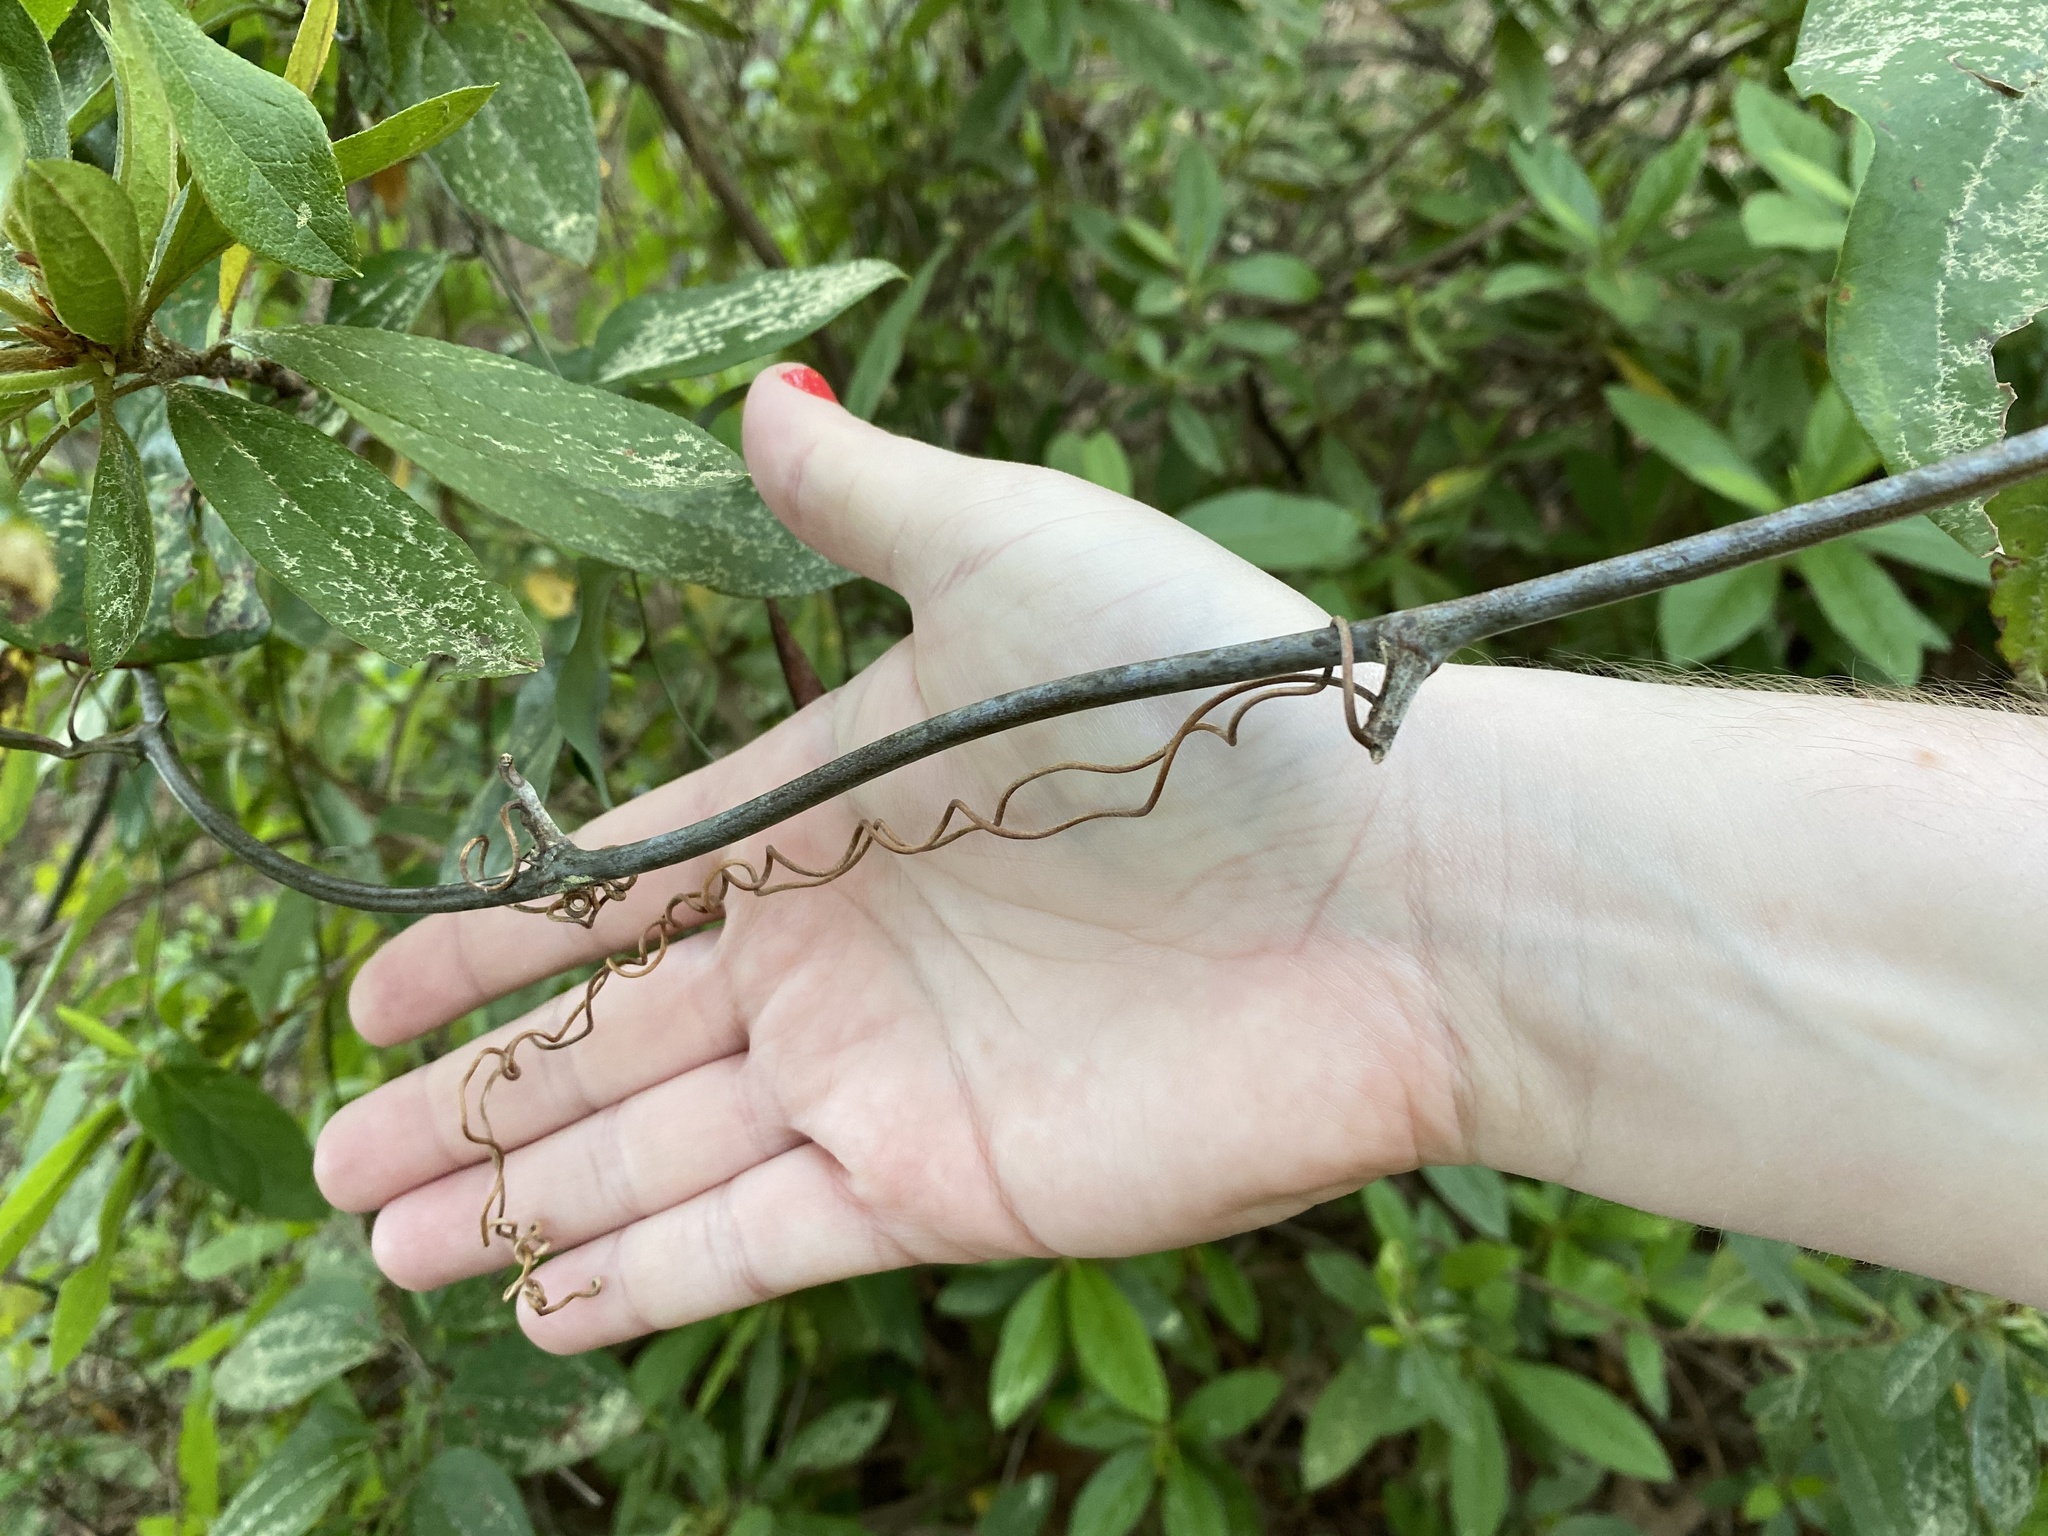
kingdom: Plantae
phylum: Tracheophyta
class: Liliopsida
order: Liliales
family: Smilacaceae
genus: Smilax
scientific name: Smilax glauca
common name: Cat greenbrier
